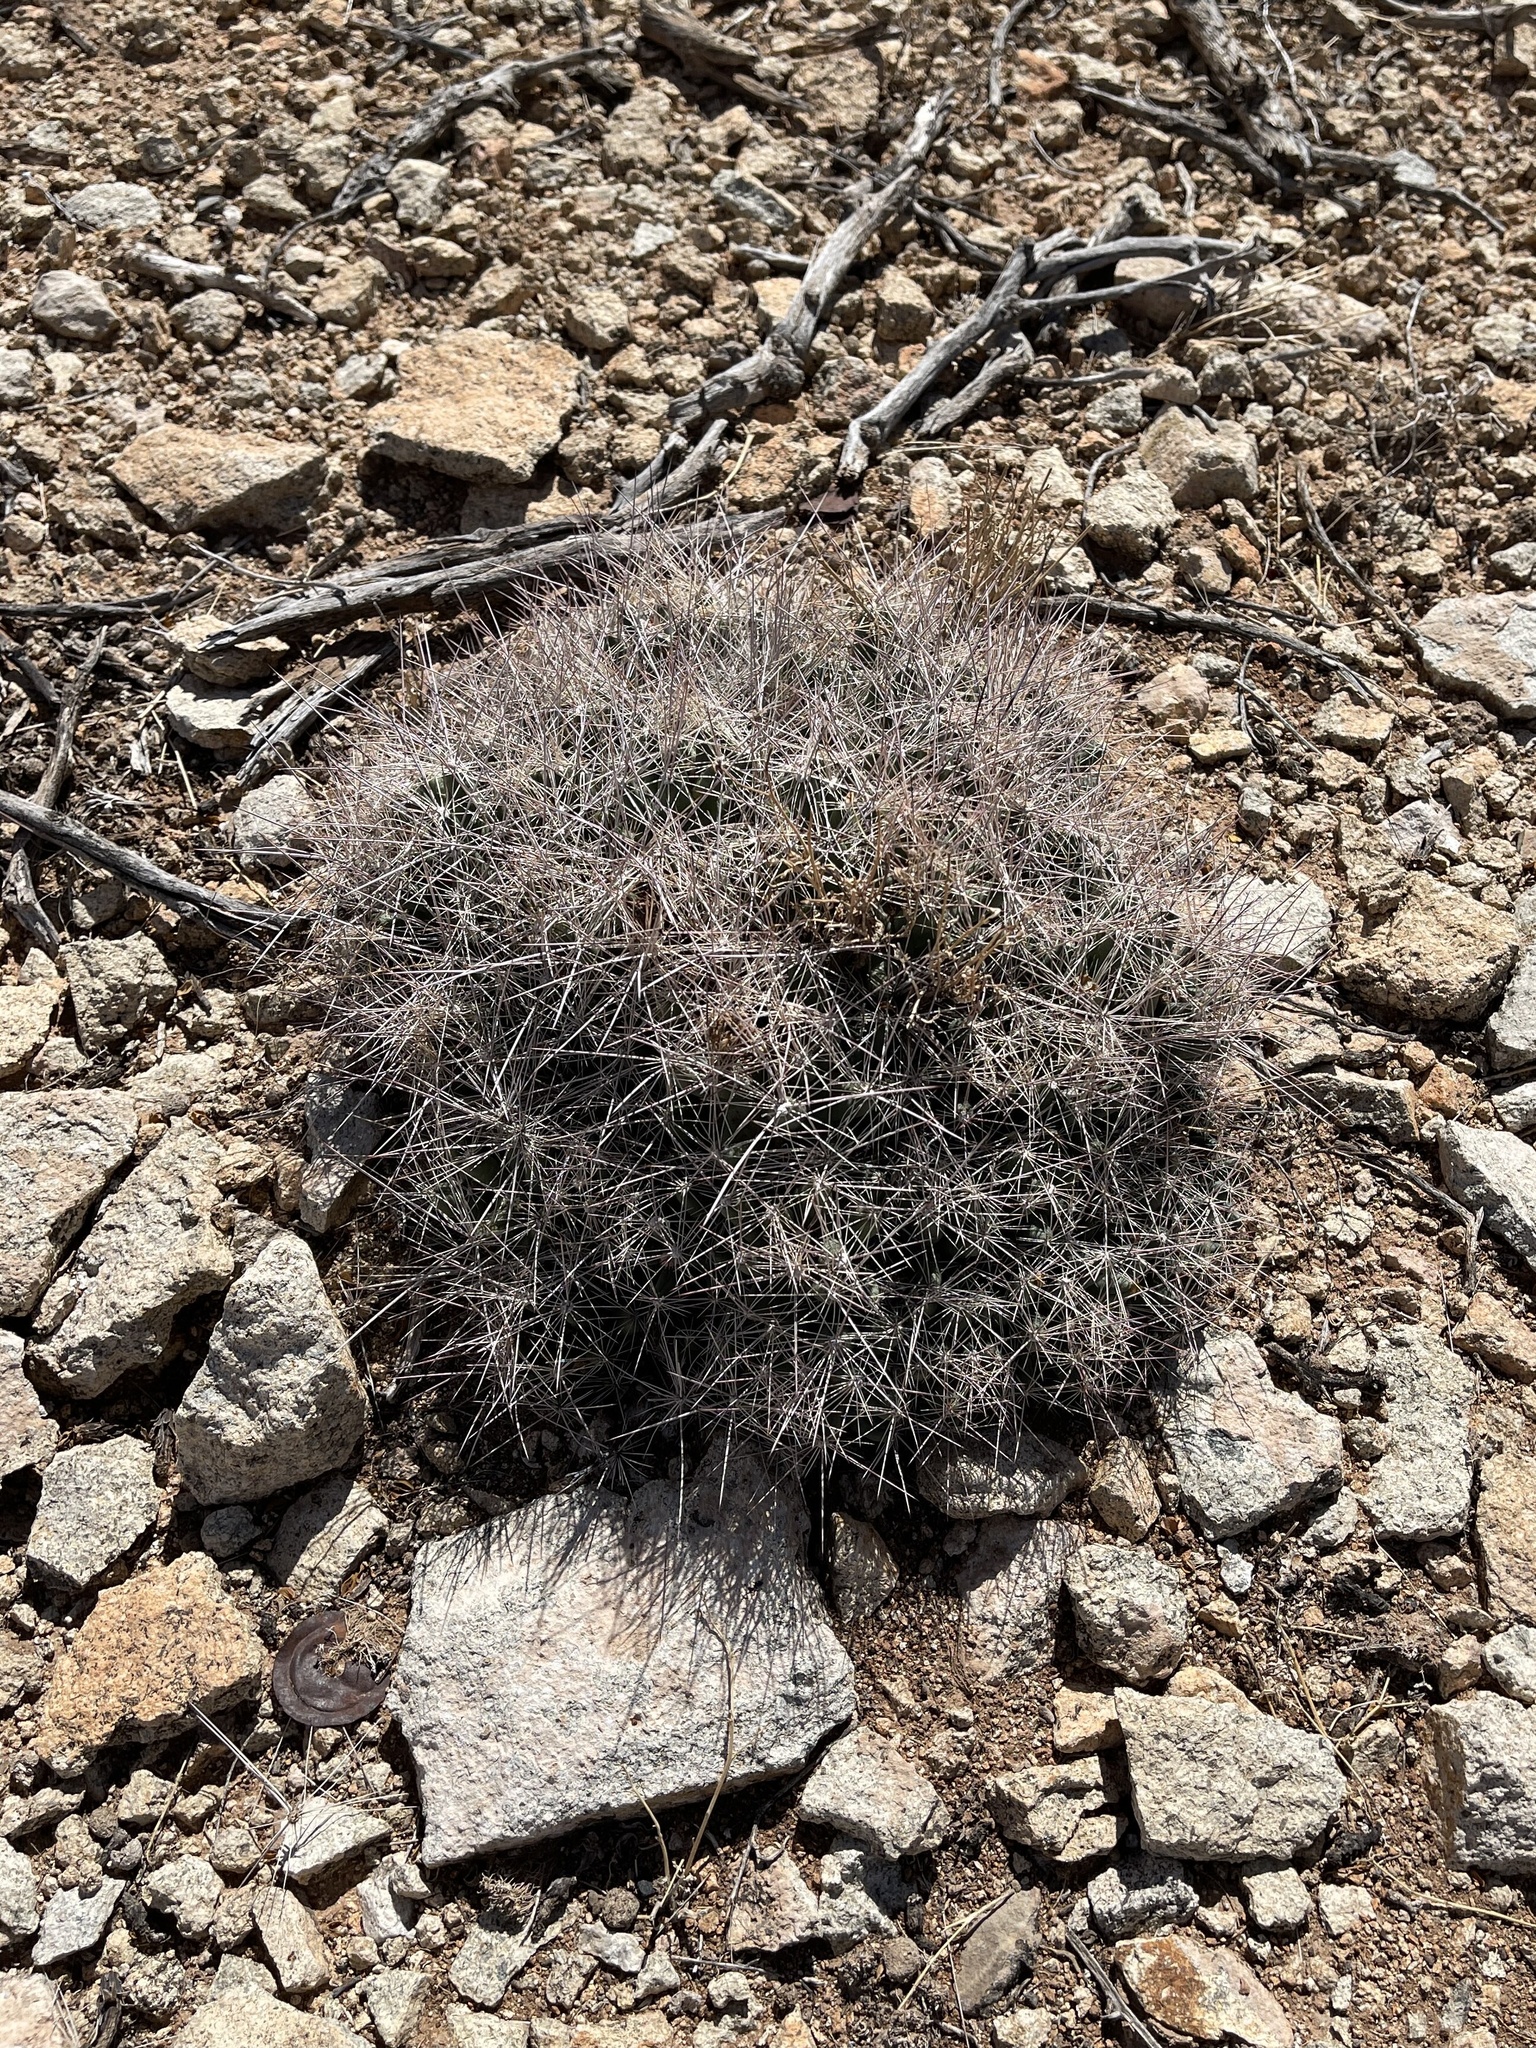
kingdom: Plantae
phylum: Tracheophyta
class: Magnoliopsida
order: Caryophyllales
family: Cactaceae
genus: Coryphantha
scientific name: Coryphantha macromeris
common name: Nipple beehive cactus
